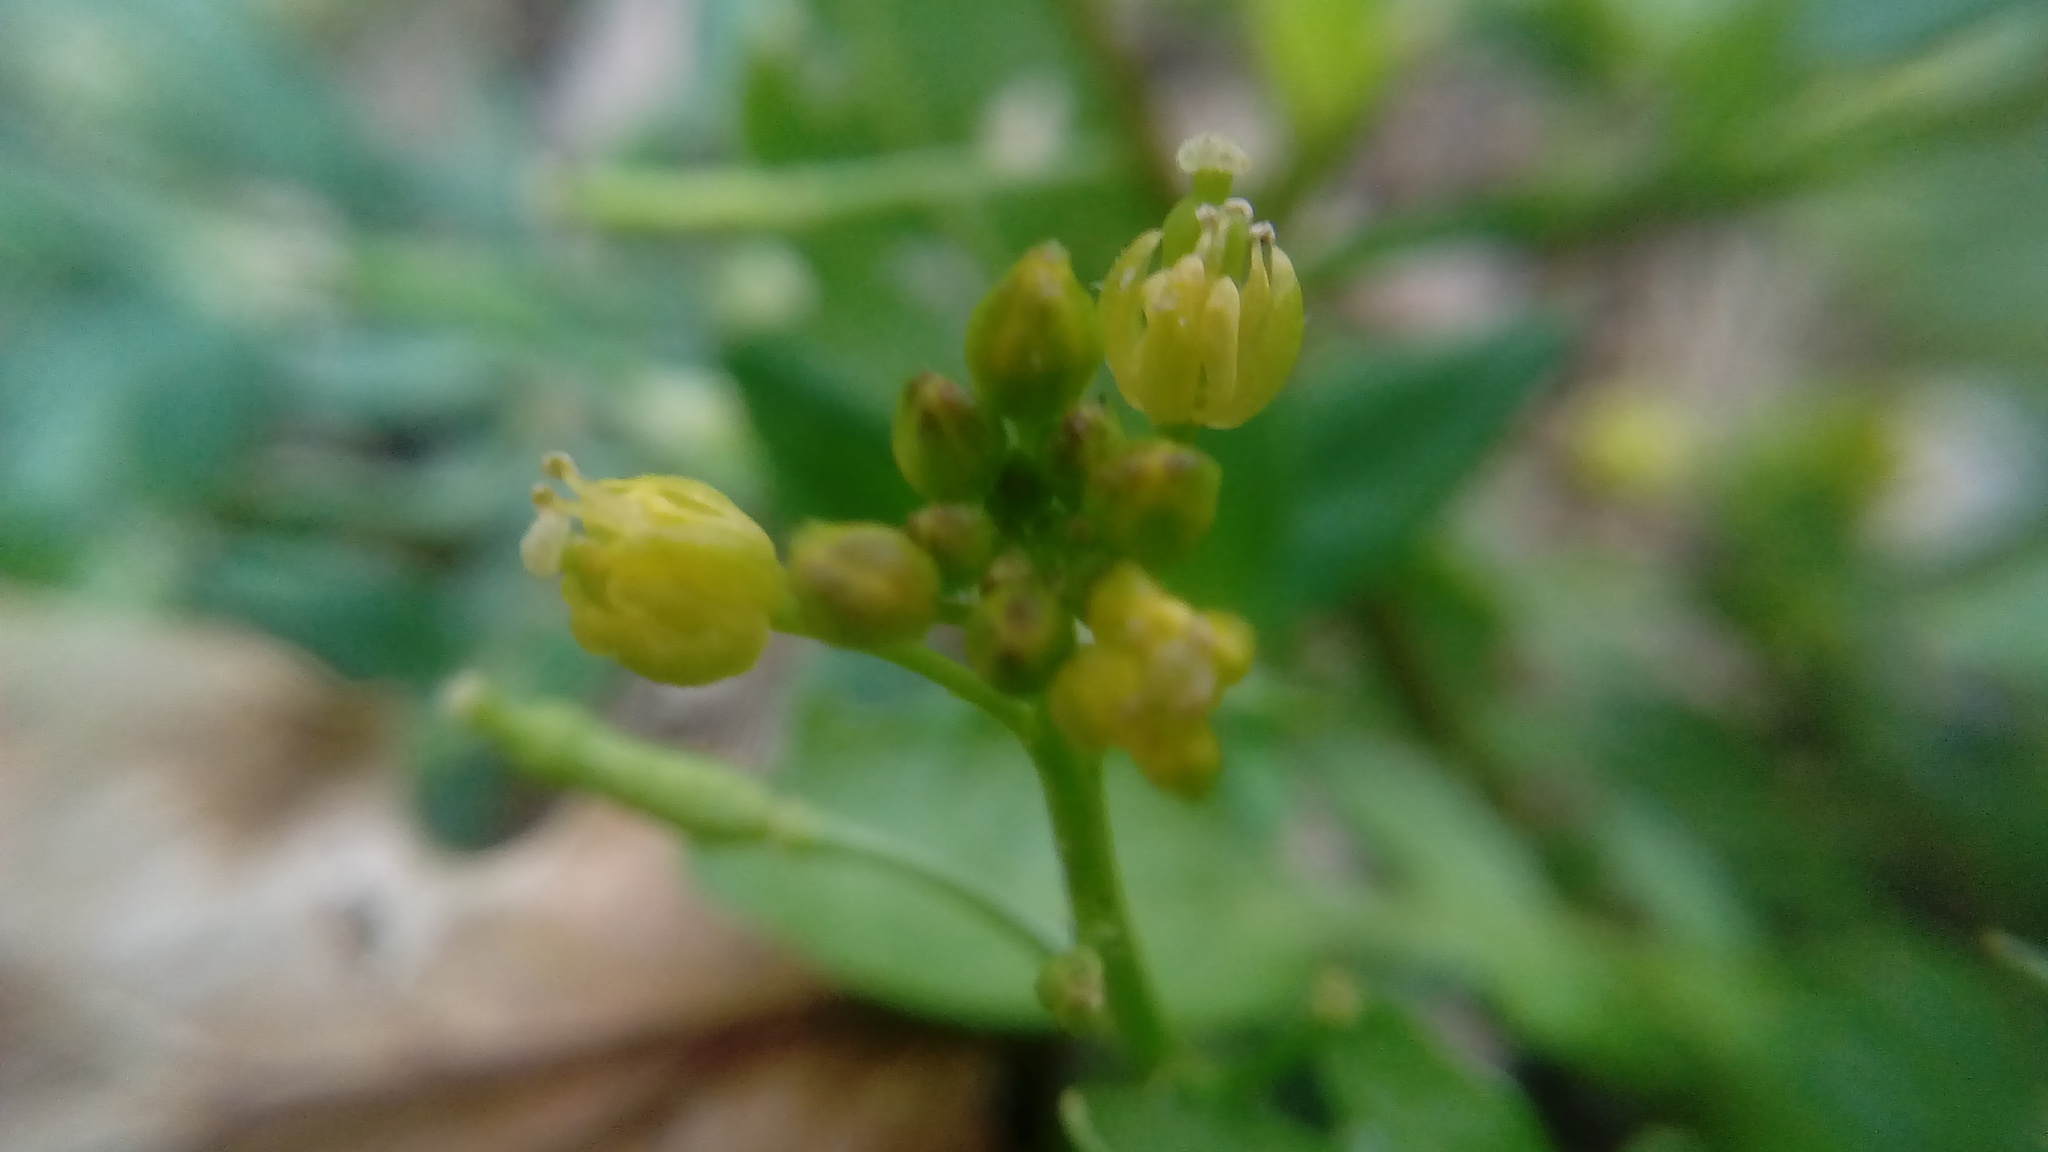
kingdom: Plantae
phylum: Tracheophyta
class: Magnoliopsida
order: Brassicales
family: Brassicaceae
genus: Rorippa
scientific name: Rorippa palustris
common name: Marsh yellow-cress
